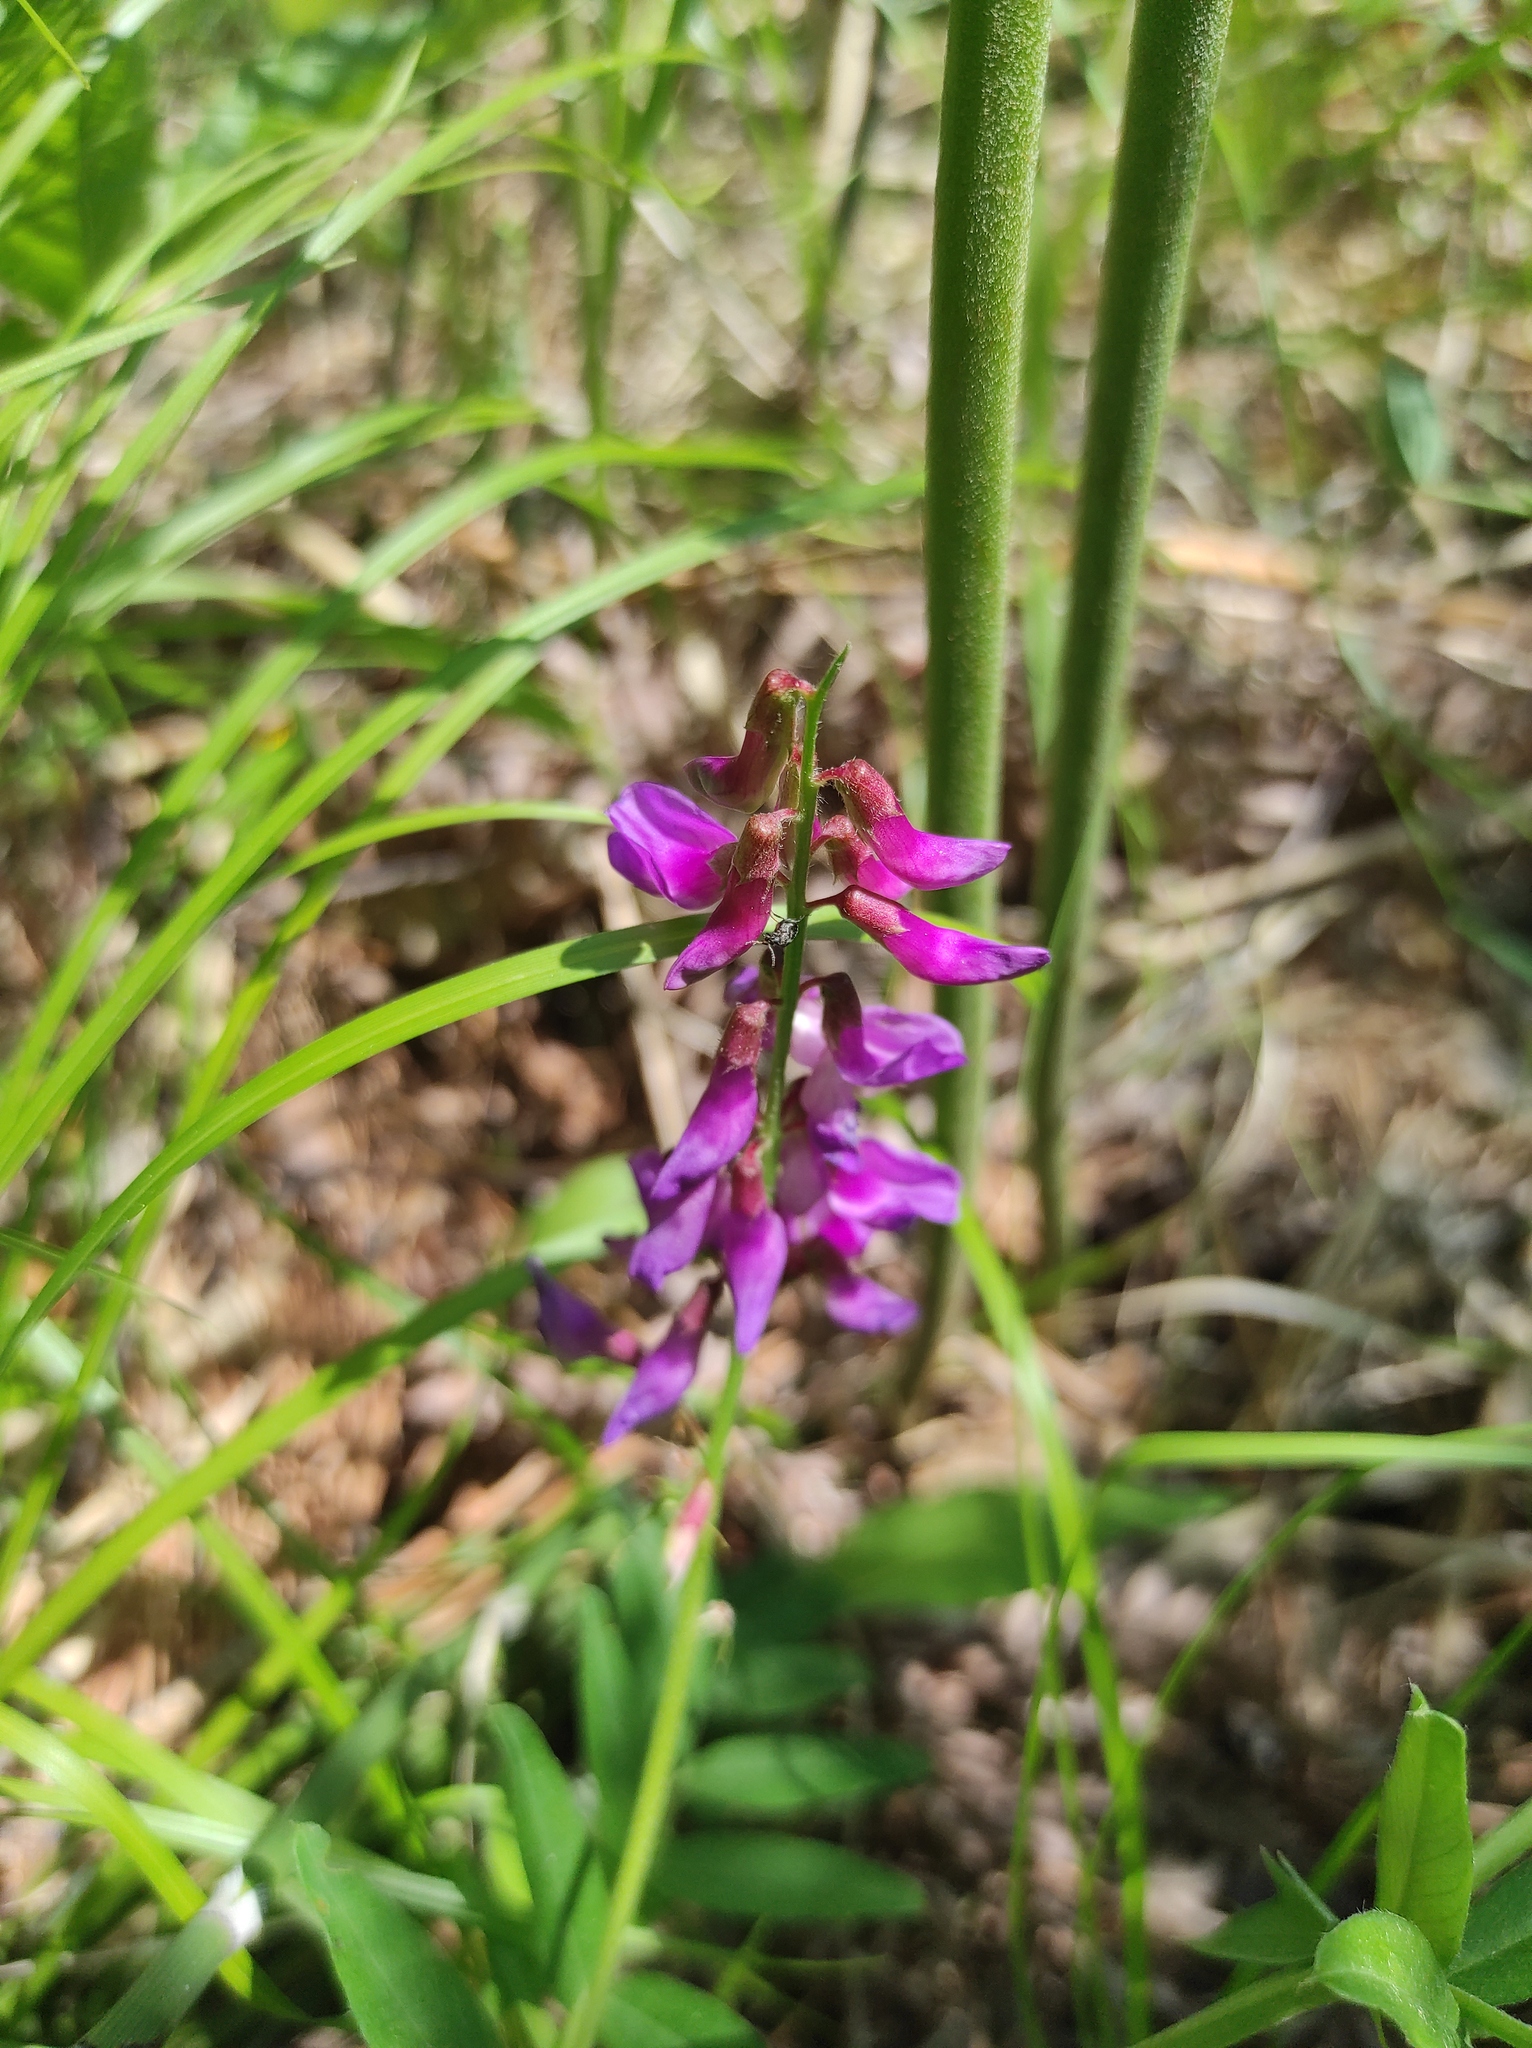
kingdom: Plantae
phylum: Tracheophyta
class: Magnoliopsida
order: Fabales
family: Fabaceae
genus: Vicia
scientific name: Vicia amoena
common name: Cheder ebs
